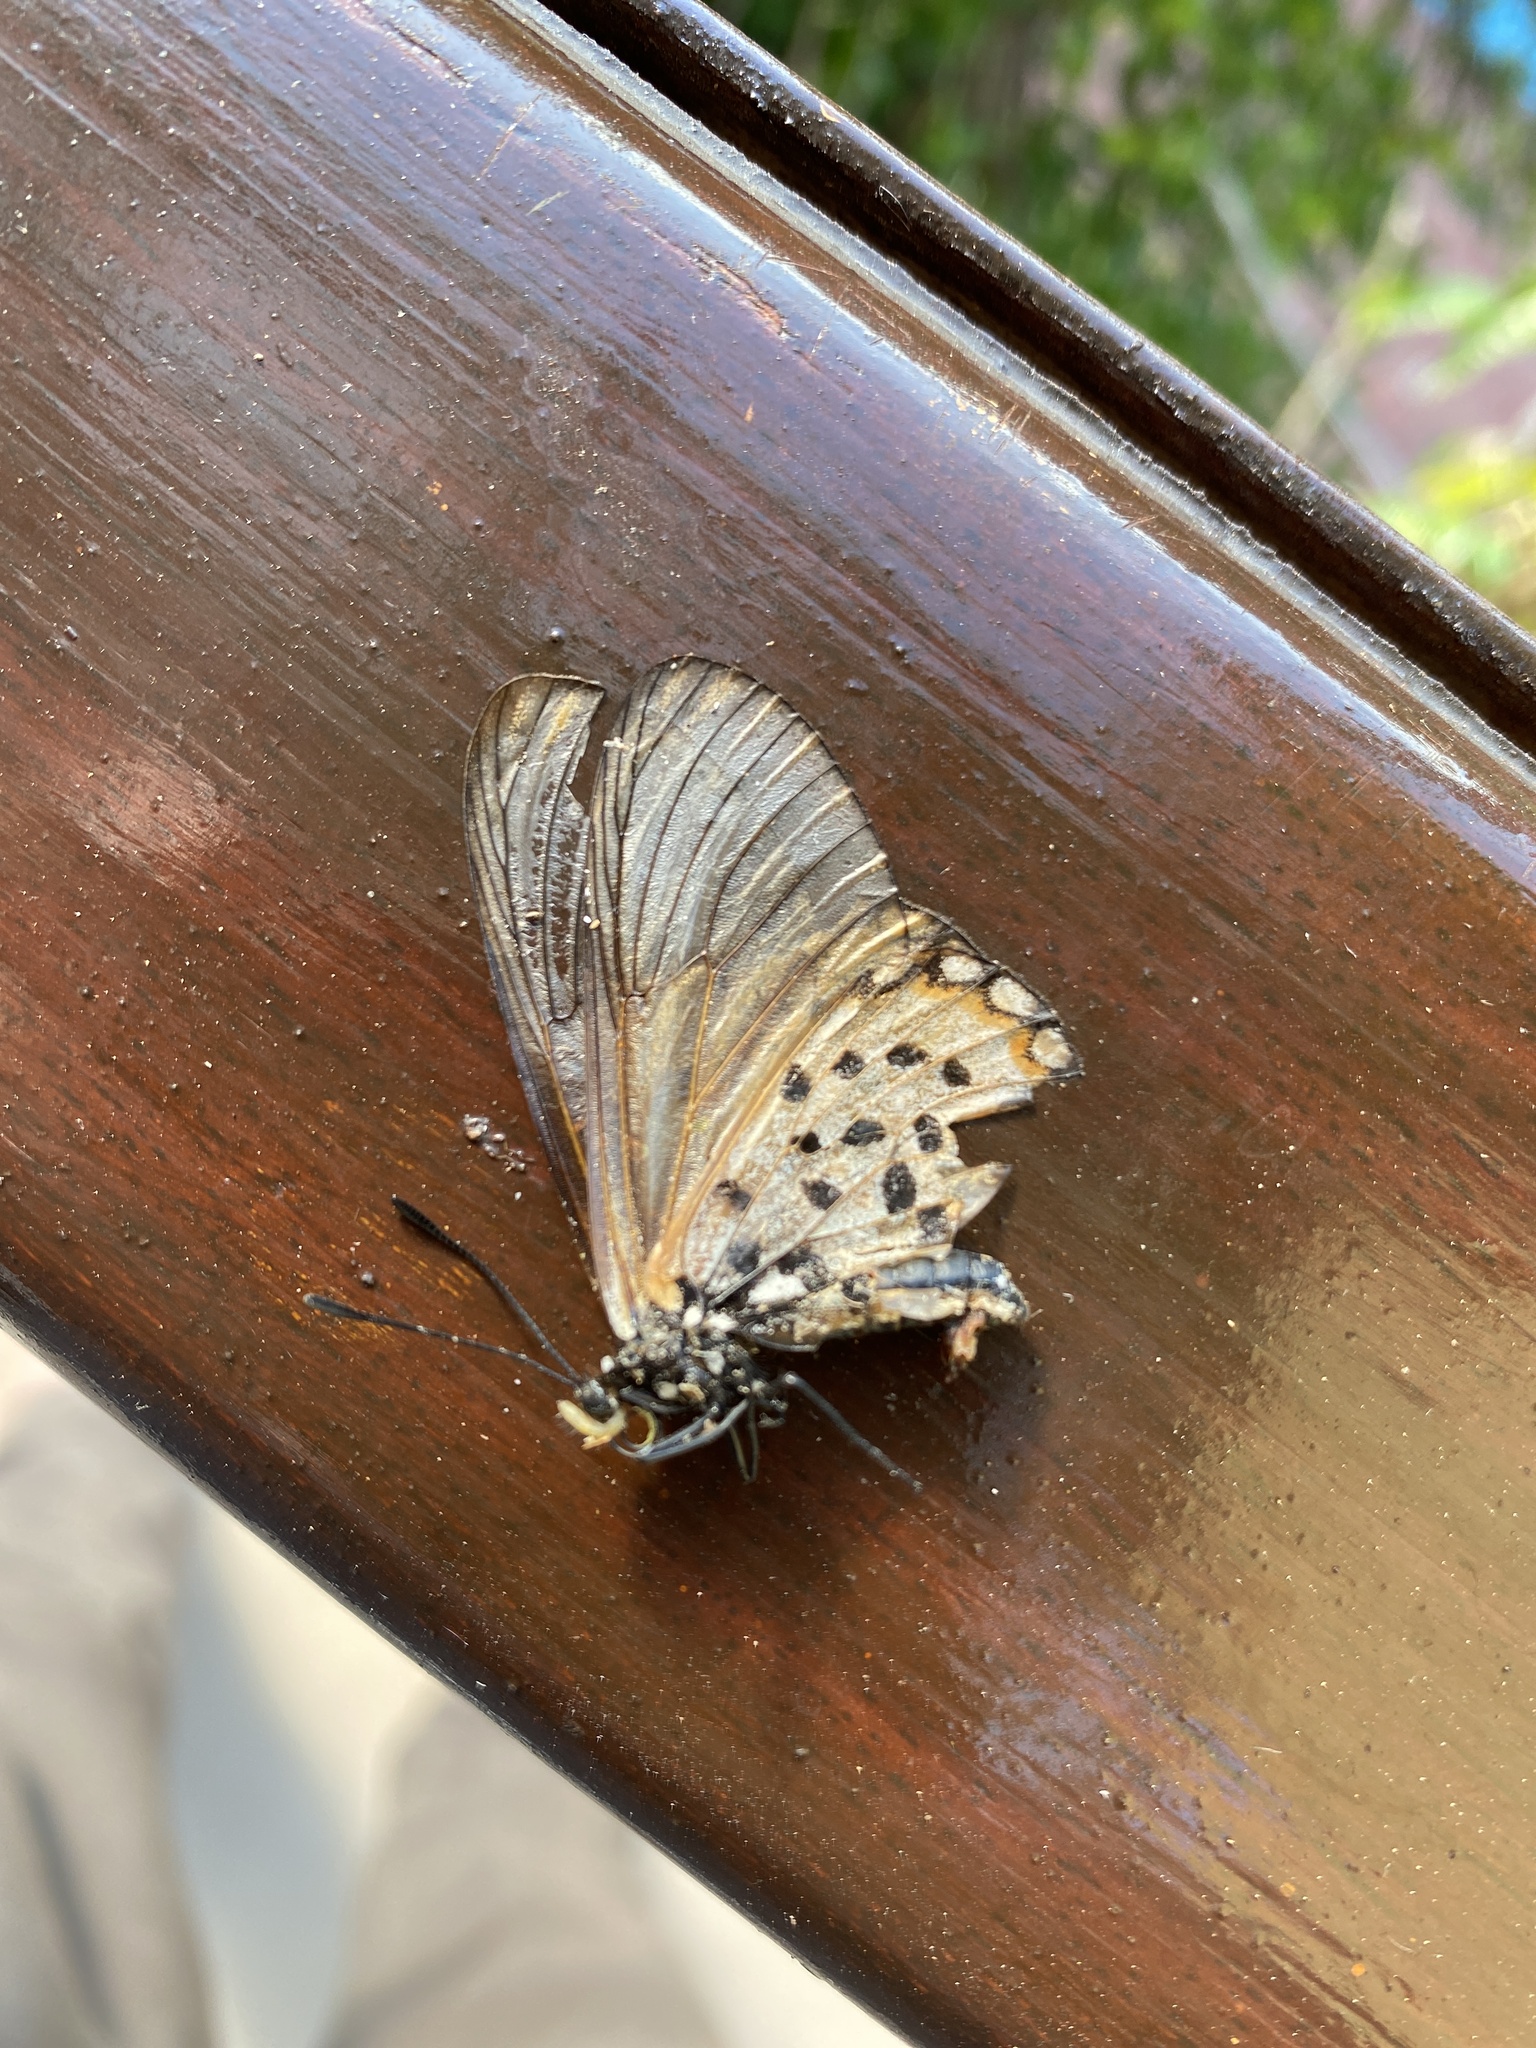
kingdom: Animalia
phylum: Arthropoda
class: Insecta
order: Lepidoptera
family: Nymphalidae
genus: Acraea
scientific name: Acraea horta
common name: Garden acraea
